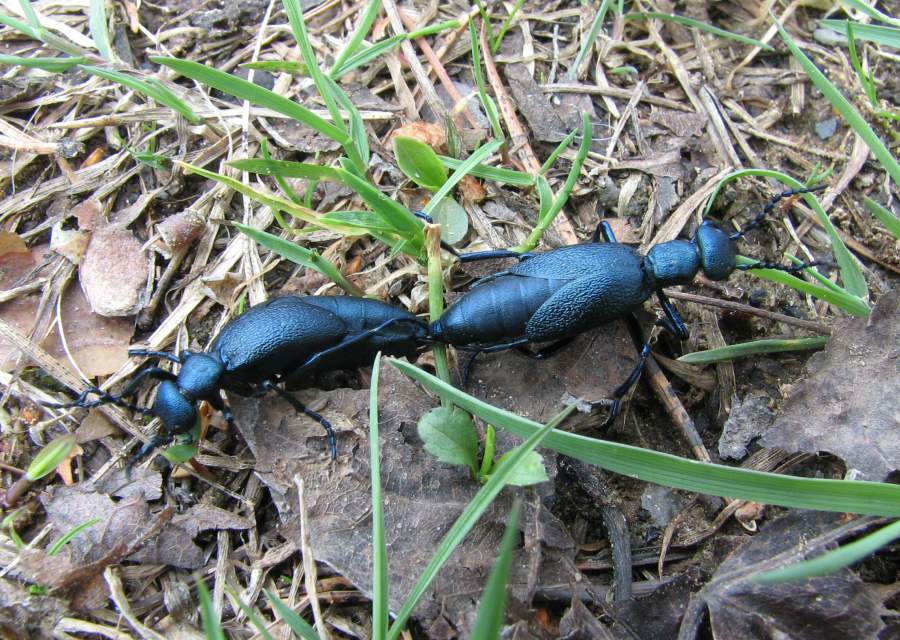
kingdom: Animalia
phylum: Arthropoda
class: Insecta
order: Coleoptera
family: Meloidae
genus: Meloe
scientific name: Meloe angusticollis
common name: Short-winged blister beetle
